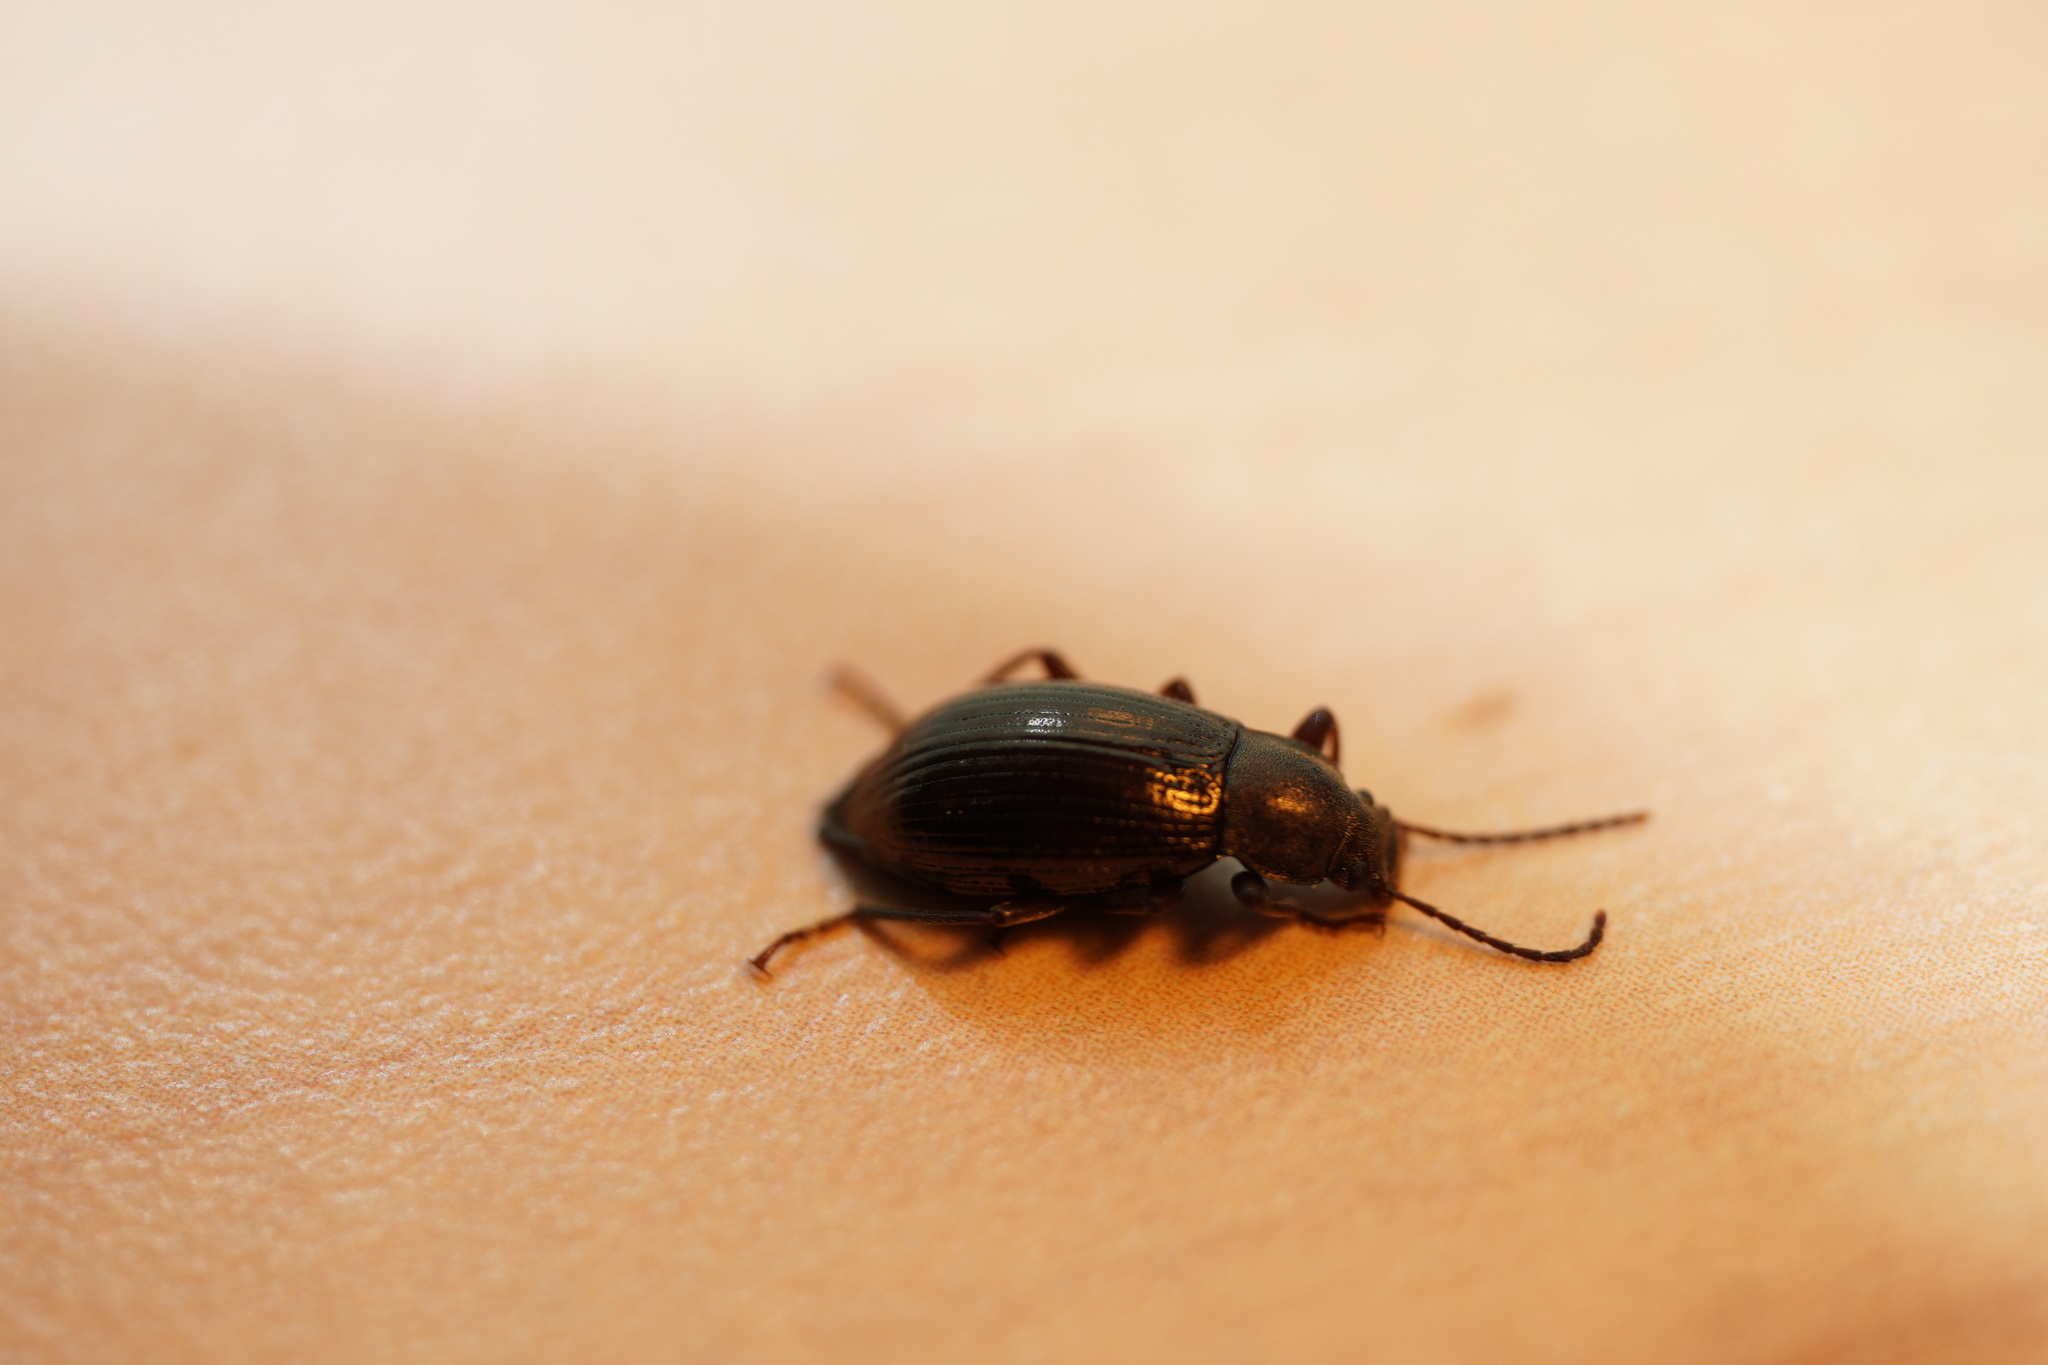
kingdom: Animalia
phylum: Arthropoda
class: Insecta
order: Coleoptera
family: Tenebrionidae
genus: Stenomax
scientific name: Stenomax aeneus
